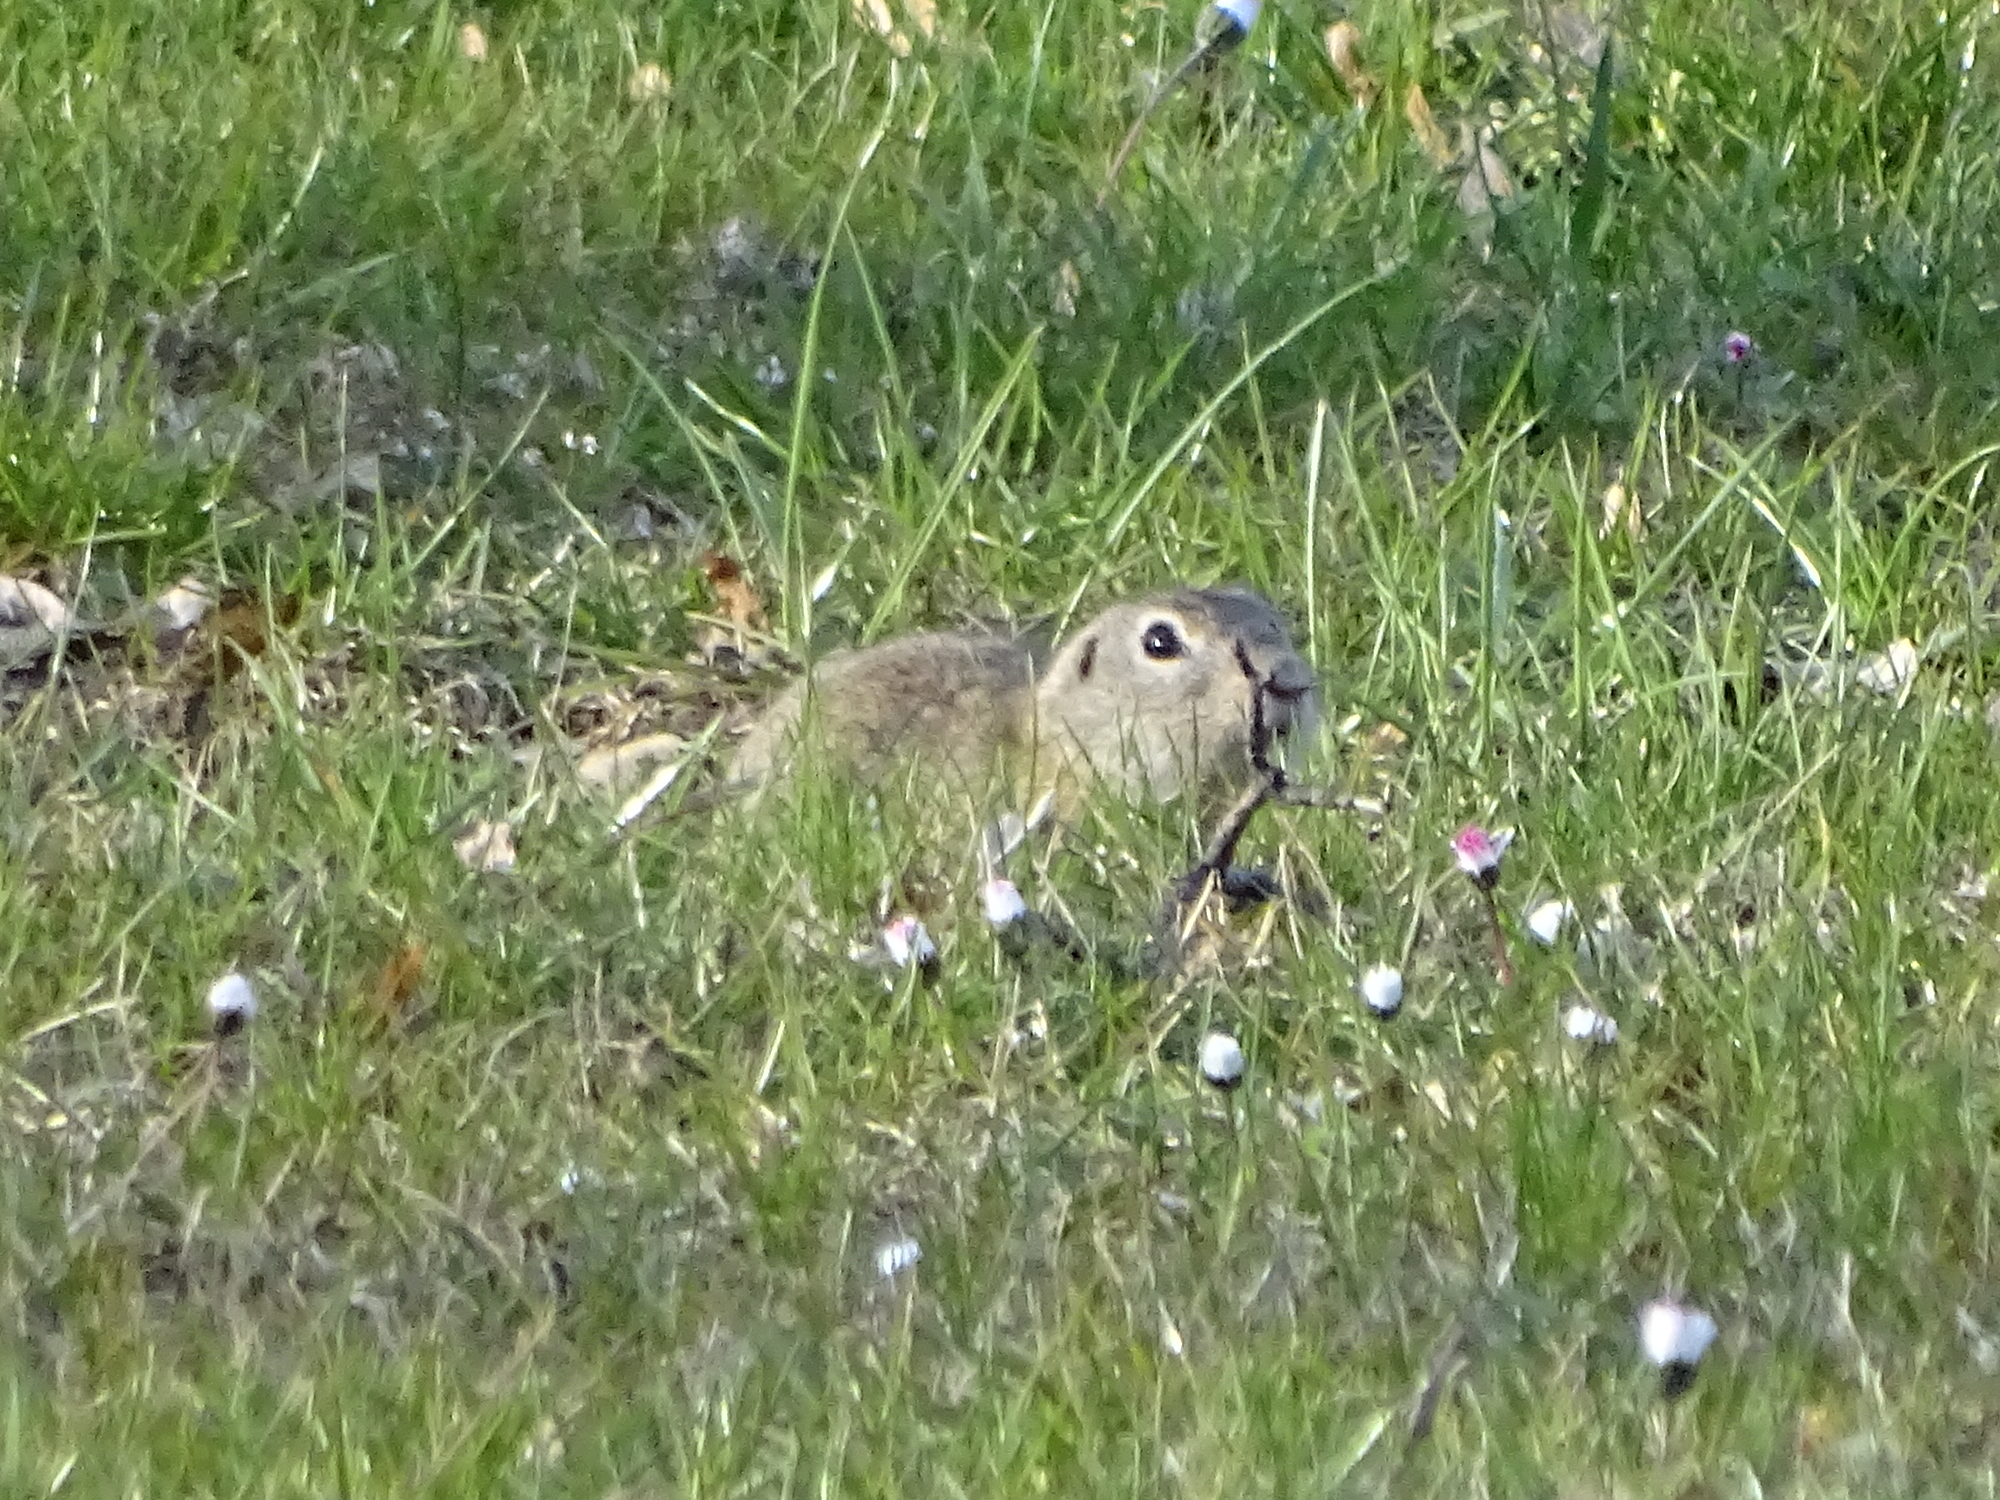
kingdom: Animalia
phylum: Chordata
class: Mammalia
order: Rodentia
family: Sciuridae
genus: Spermophilus
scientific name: Spermophilus citellus
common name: European ground squirrel
